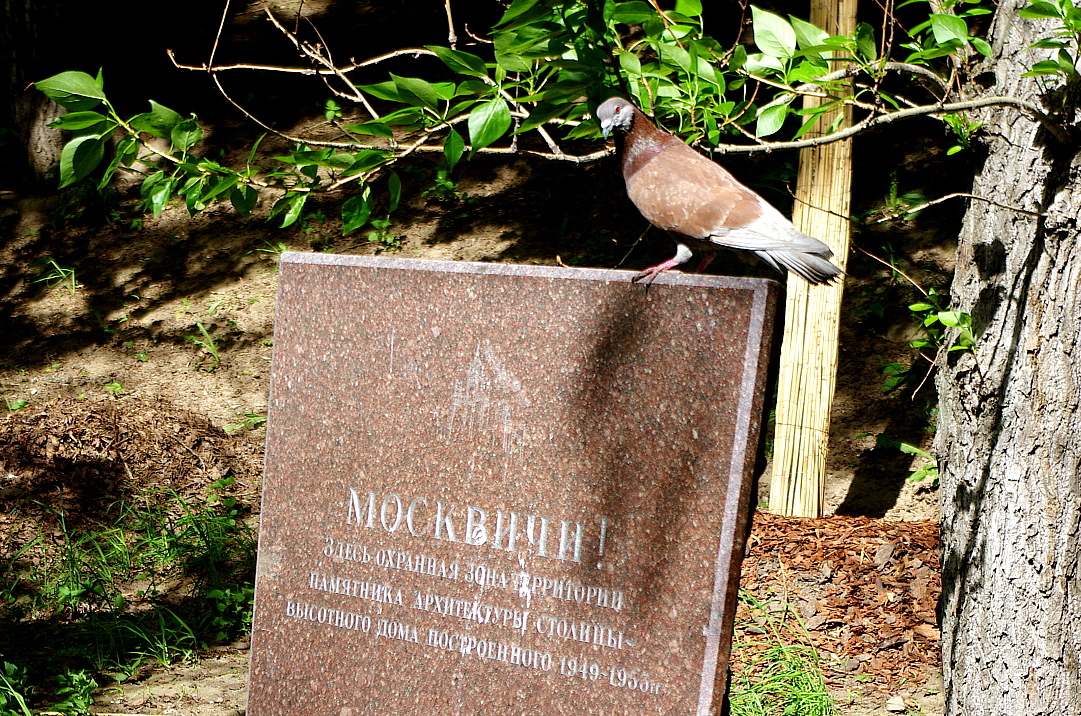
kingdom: Animalia
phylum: Chordata
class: Aves
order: Columbiformes
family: Columbidae
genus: Columba
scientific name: Columba livia
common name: Rock pigeon
